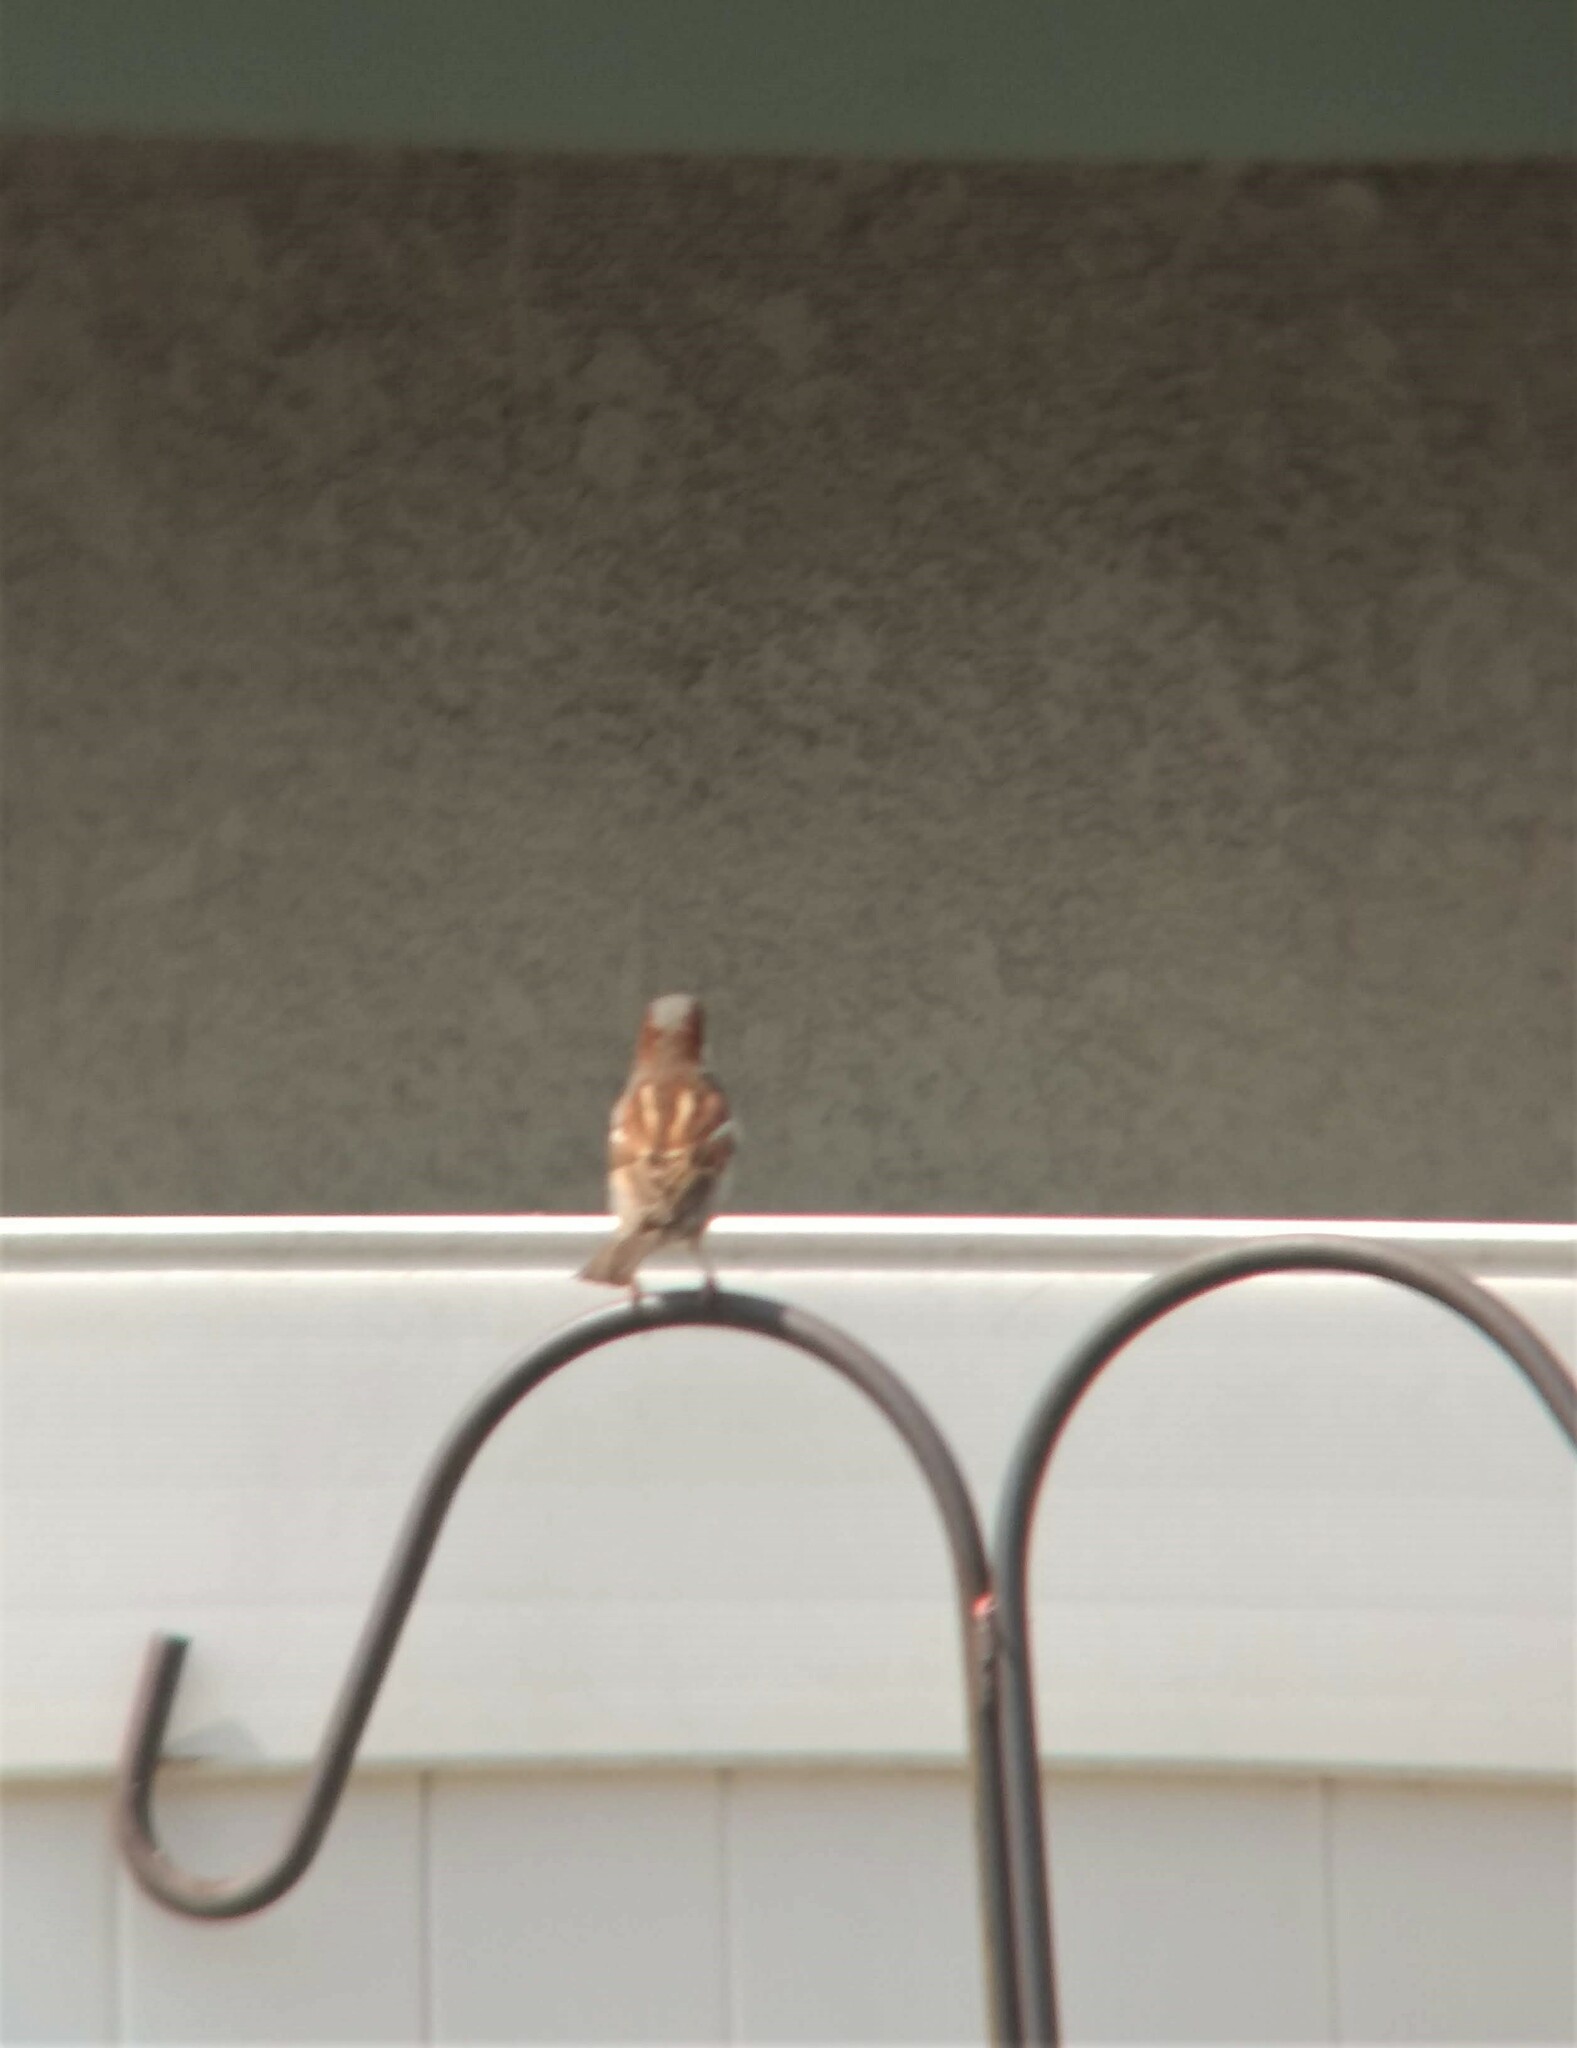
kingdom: Animalia
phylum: Chordata
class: Aves
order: Passeriformes
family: Passeridae
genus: Passer
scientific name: Passer domesticus
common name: House sparrow
